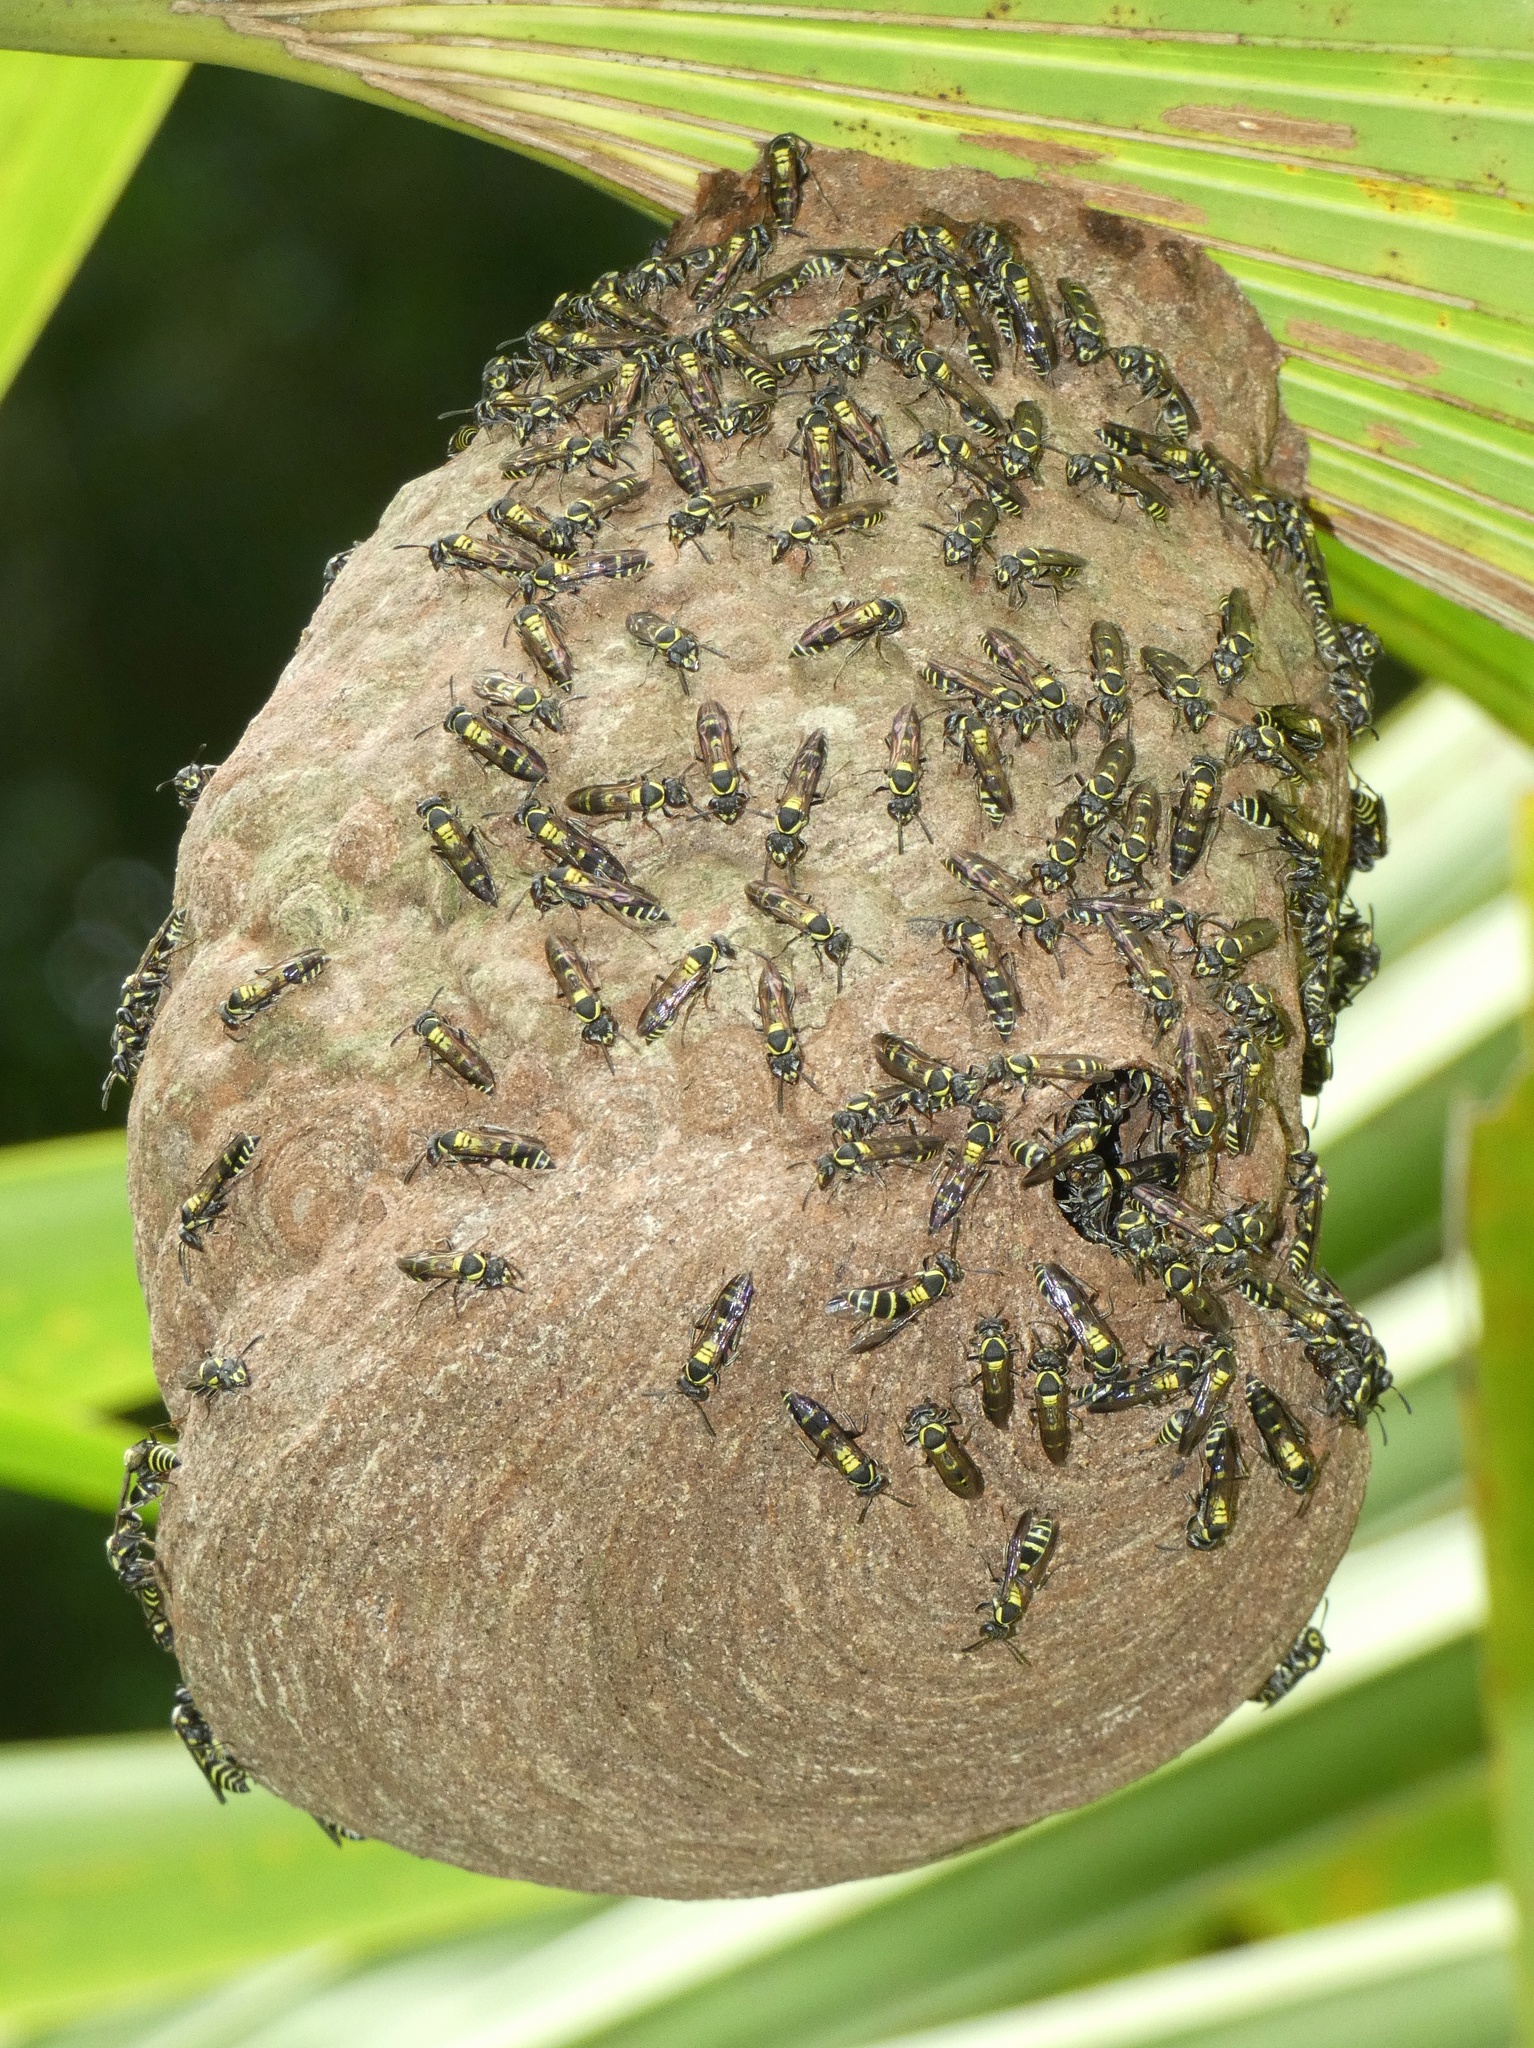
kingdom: Animalia
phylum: Arthropoda
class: Insecta
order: Hymenoptera
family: Eumenidae
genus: Polybia
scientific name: Polybia occidentalis
